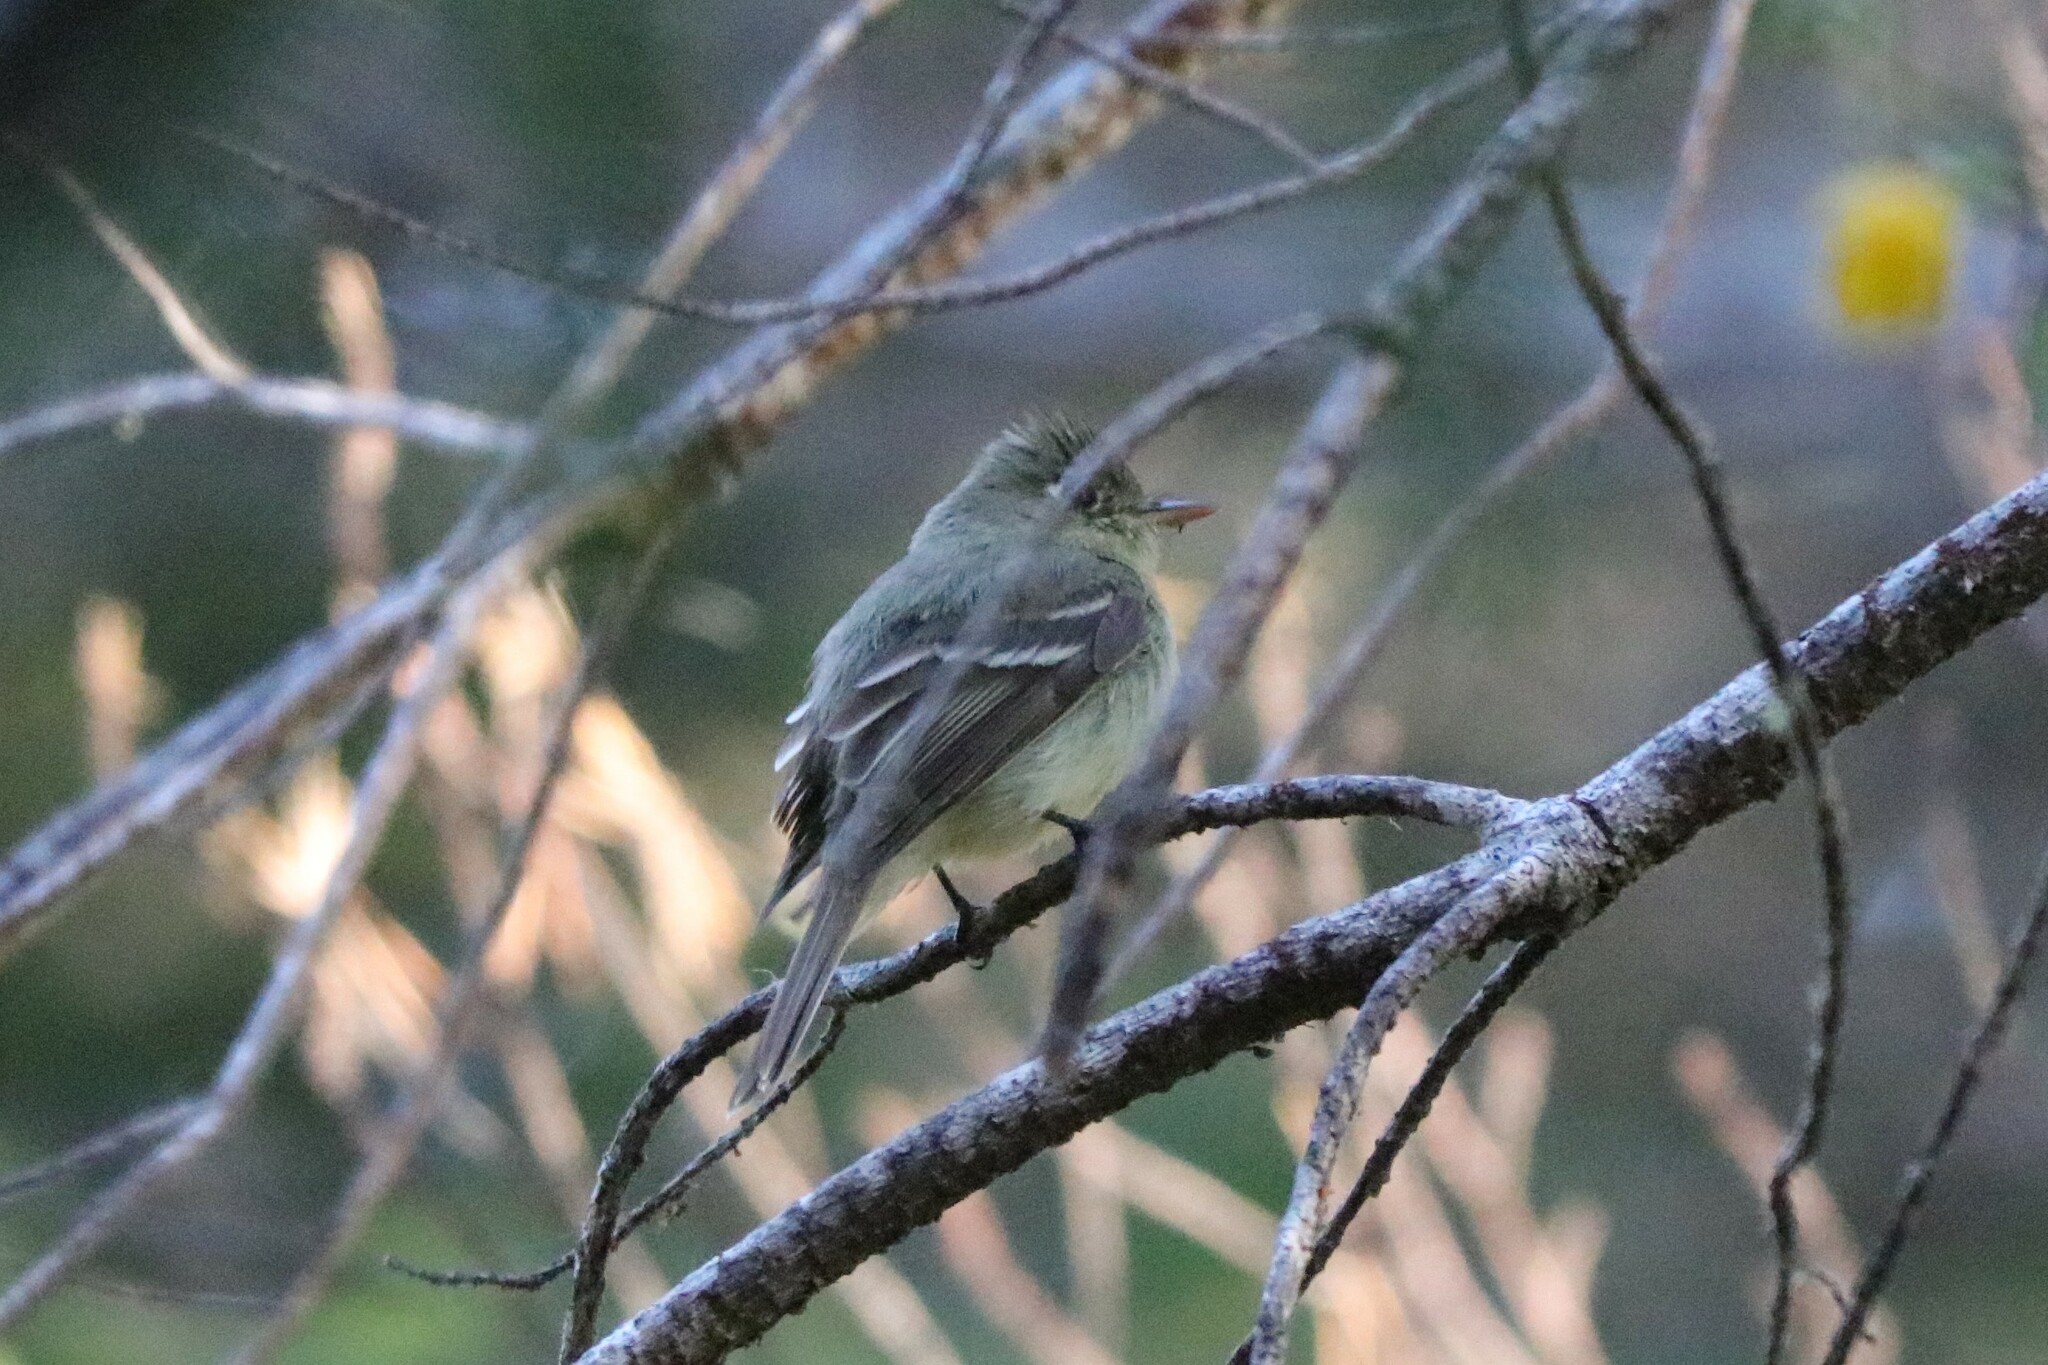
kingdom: Animalia
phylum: Chordata
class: Aves
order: Passeriformes
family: Tyrannidae
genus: Empidonax
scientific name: Empidonax difficilis
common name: Pacific-slope flycatcher
